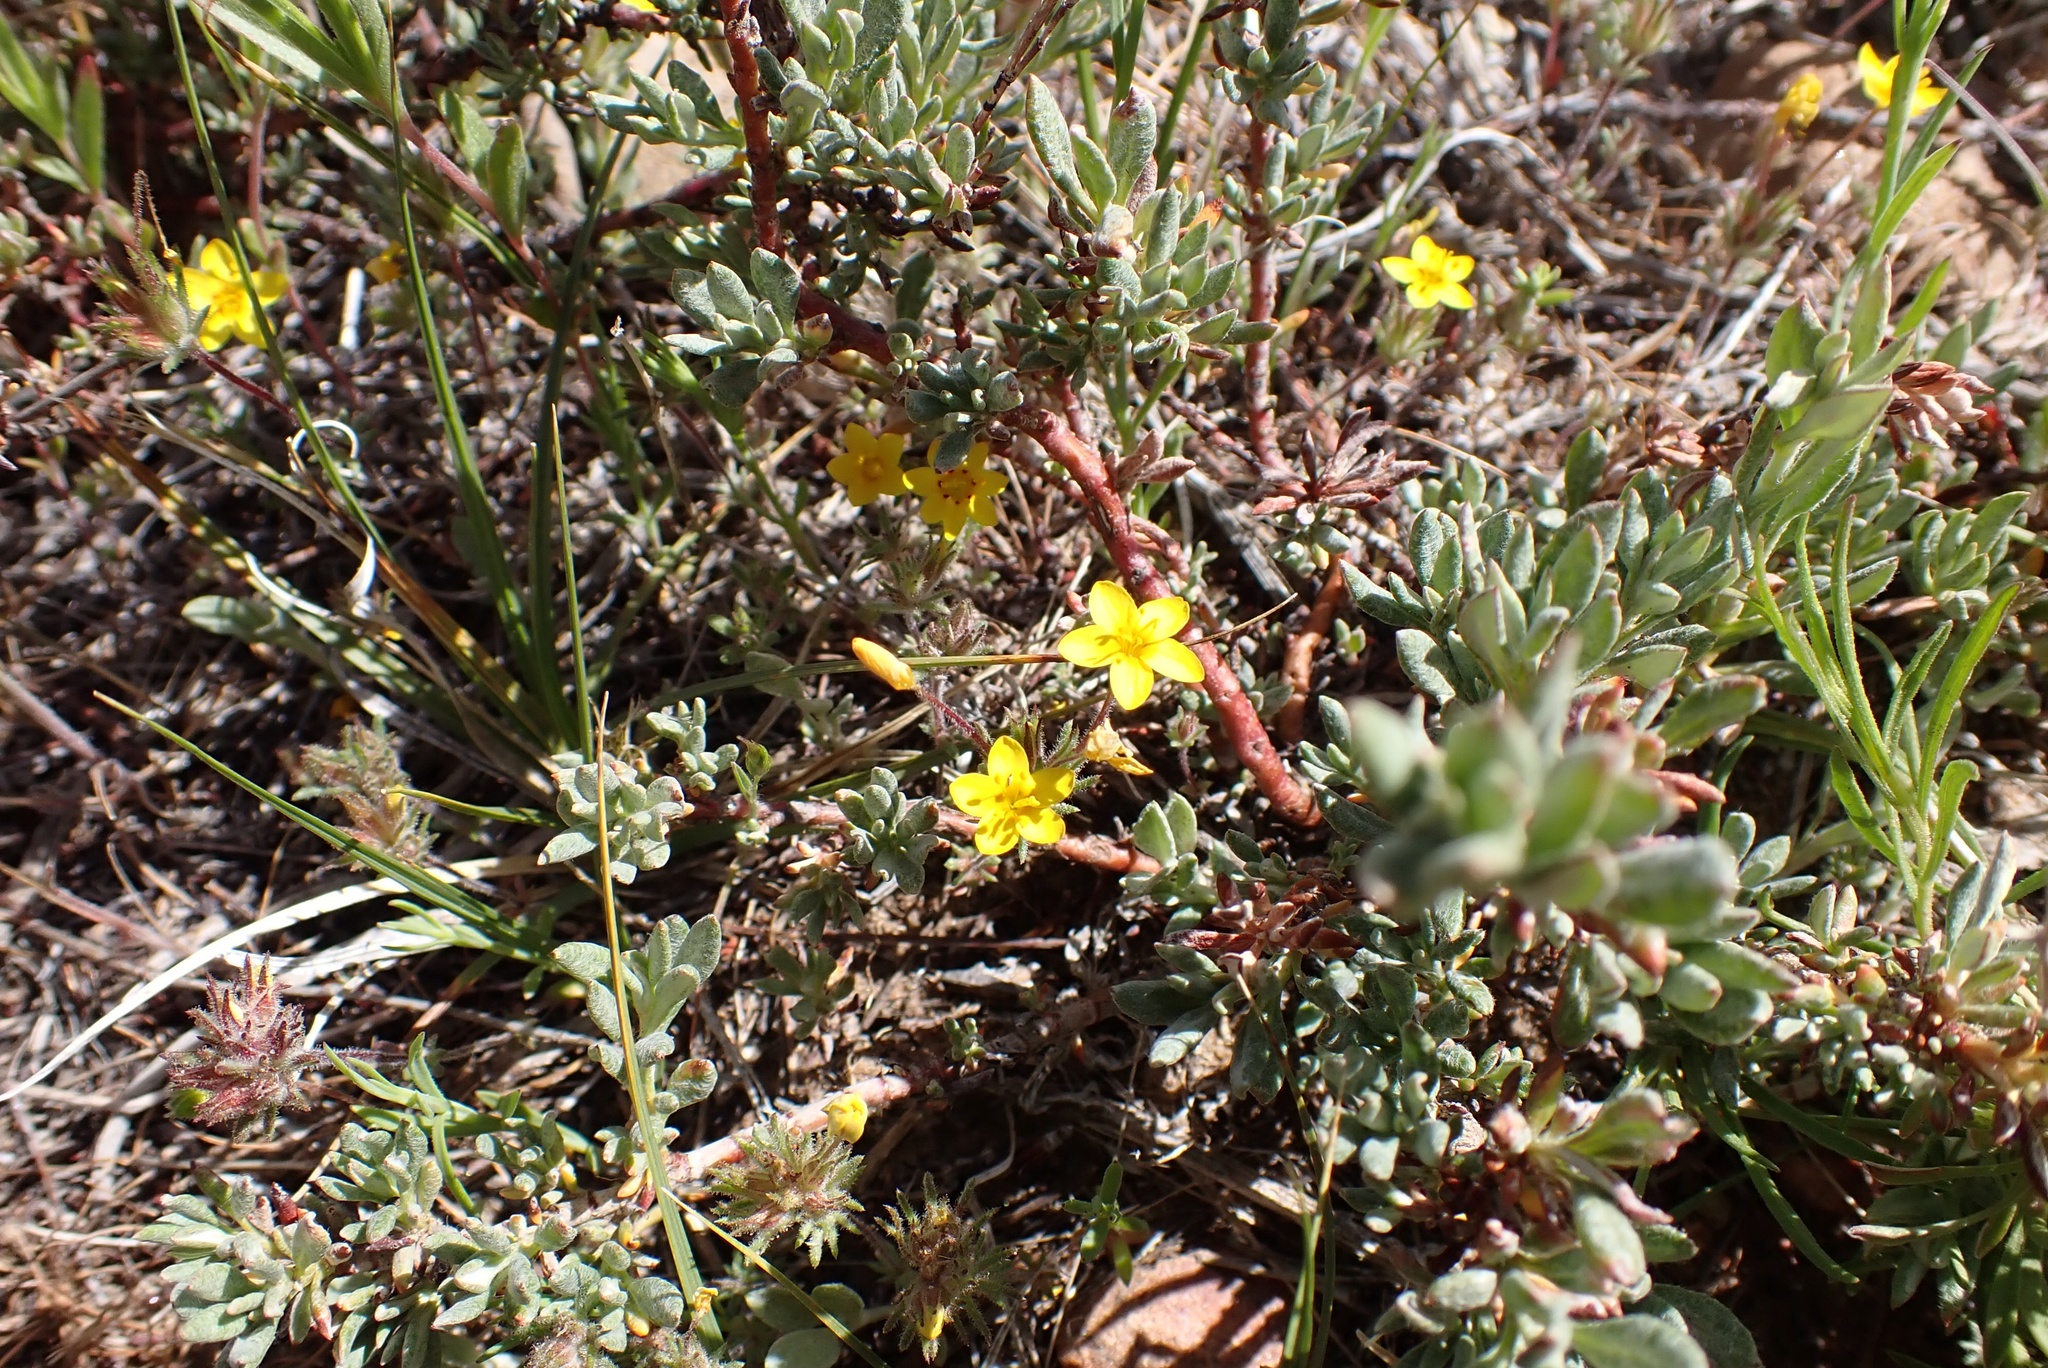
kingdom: Plantae
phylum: Tracheophyta
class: Magnoliopsida
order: Ericales
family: Polemoniaceae
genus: Leptosiphon
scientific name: Leptosiphon parviflorus
